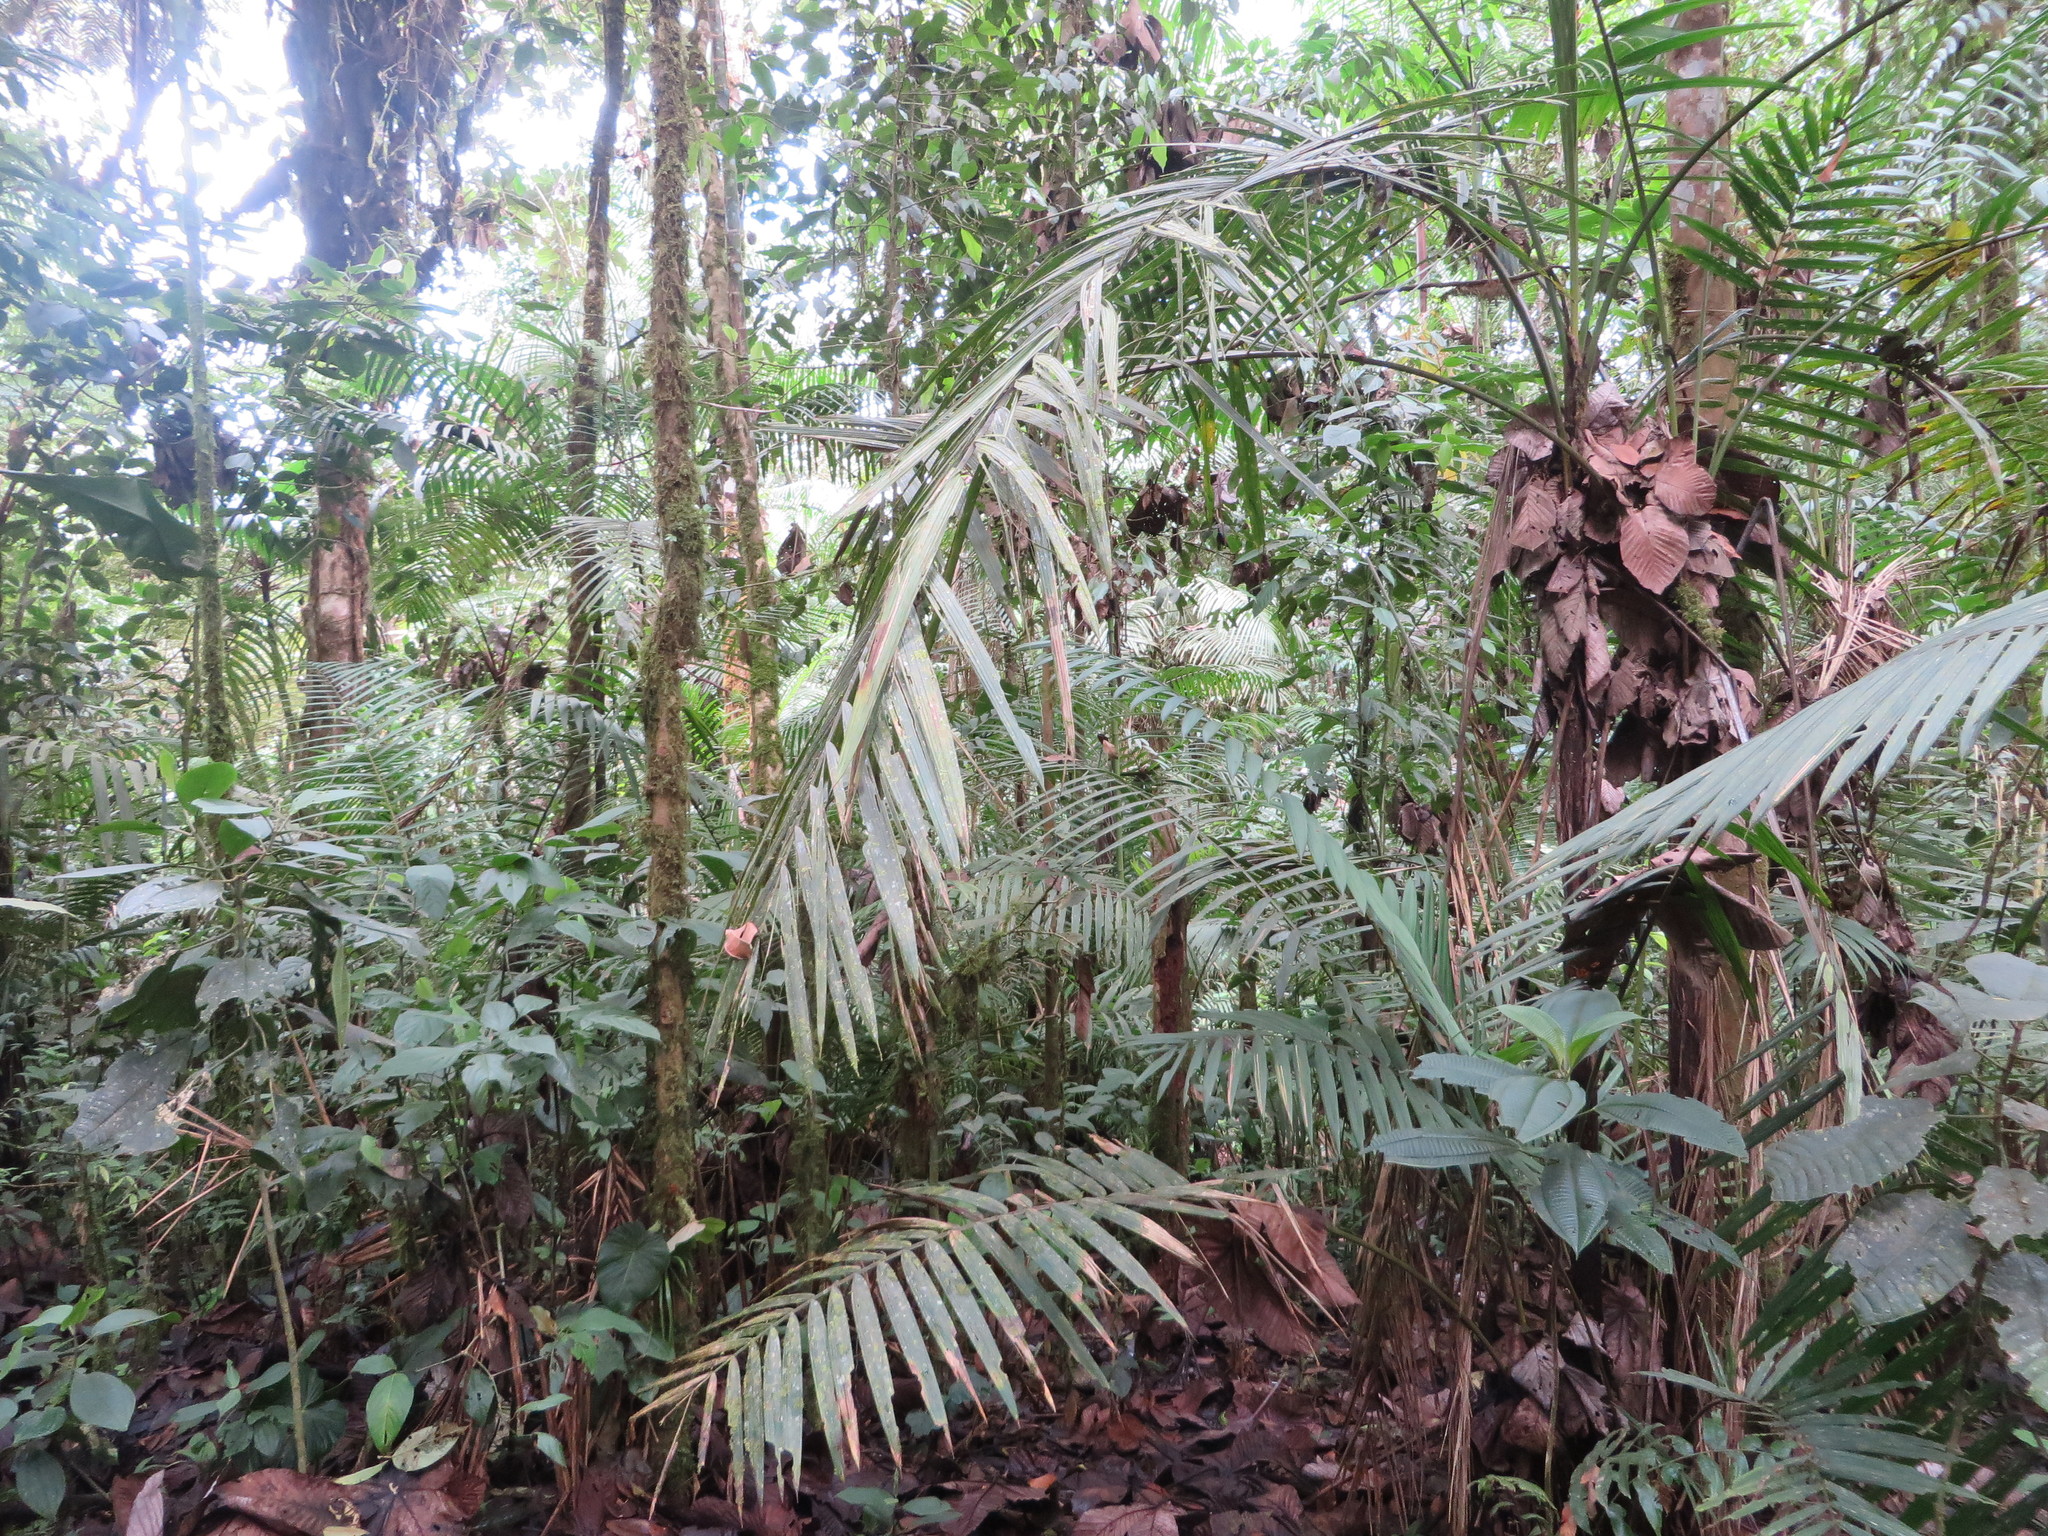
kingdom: Plantae
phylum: Tracheophyta
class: Liliopsida
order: Arecales
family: Arecaceae
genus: Prestoea
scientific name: Prestoea acuminata
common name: Sierran palm
